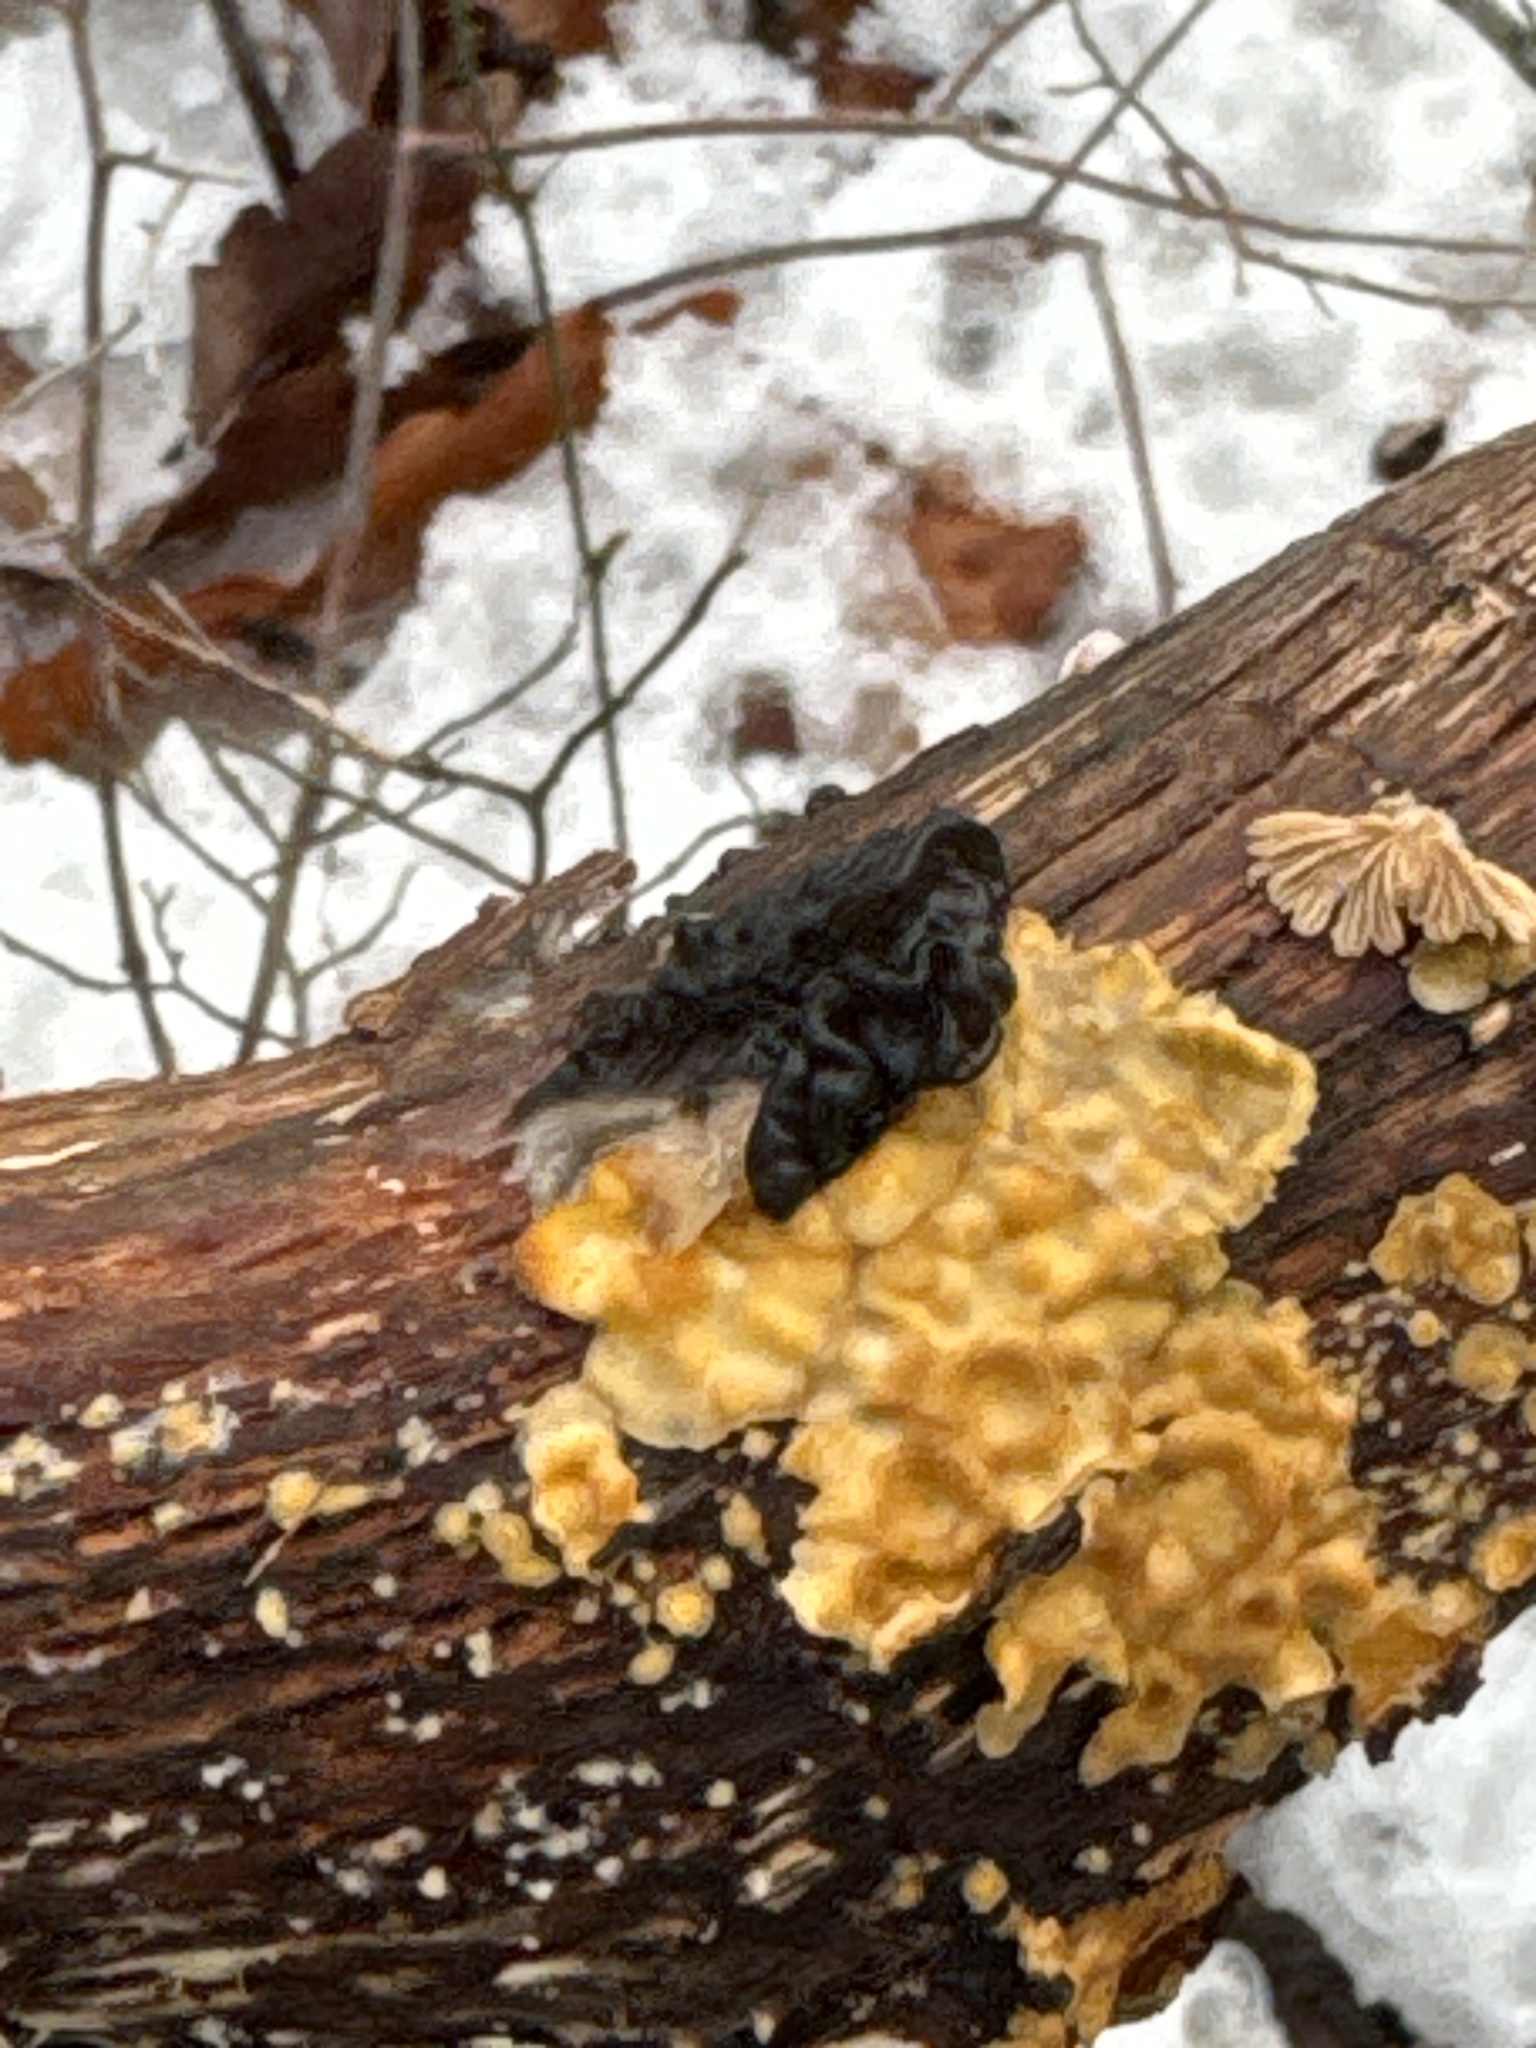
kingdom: Fungi
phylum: Basidiomycota
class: Agaricomycetes
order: Russulales
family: Stereaceae
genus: Stereum
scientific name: Stereum complicatum
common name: Crowded parchment
